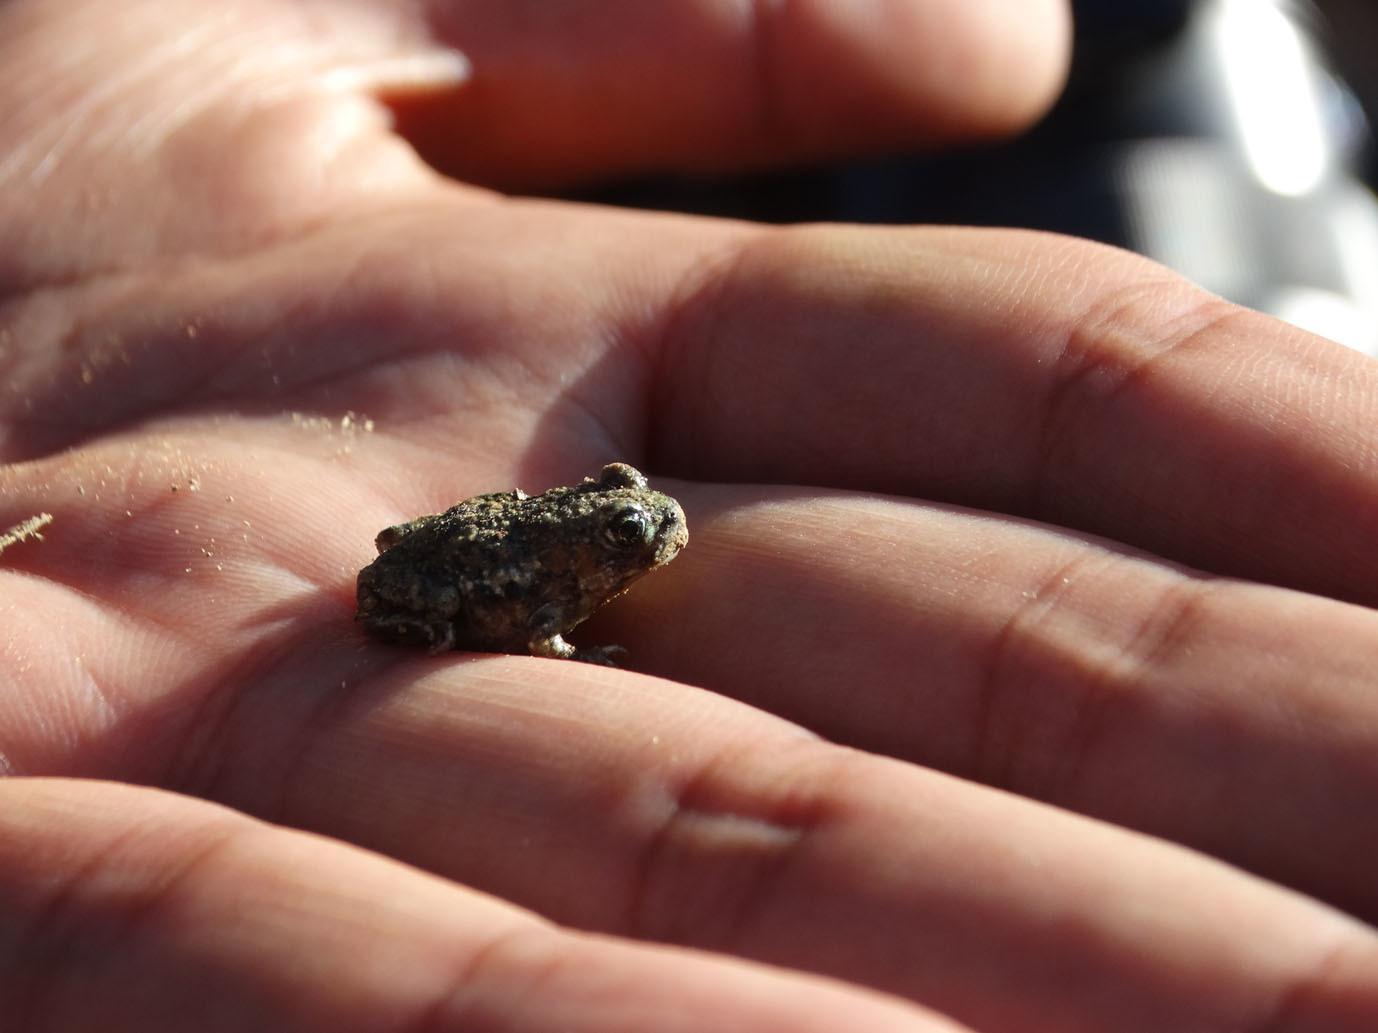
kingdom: Animalia
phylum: Chordata
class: Amphibia
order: Anura
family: Scaphiopodidae
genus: Spea
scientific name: Spea multiplicata
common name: Mexican spadefoot
